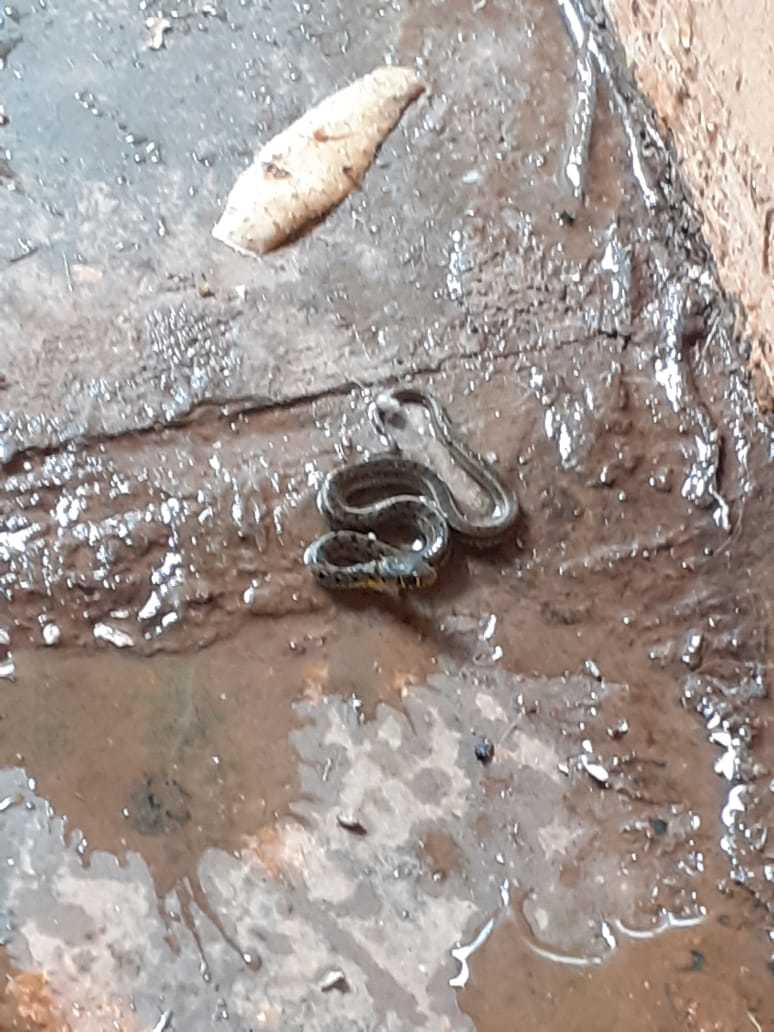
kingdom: Animalia
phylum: Chordata
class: Squamata
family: Colubridae
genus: Amphiesma
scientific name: Amphiesma stolatum
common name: Buff striped keelback
